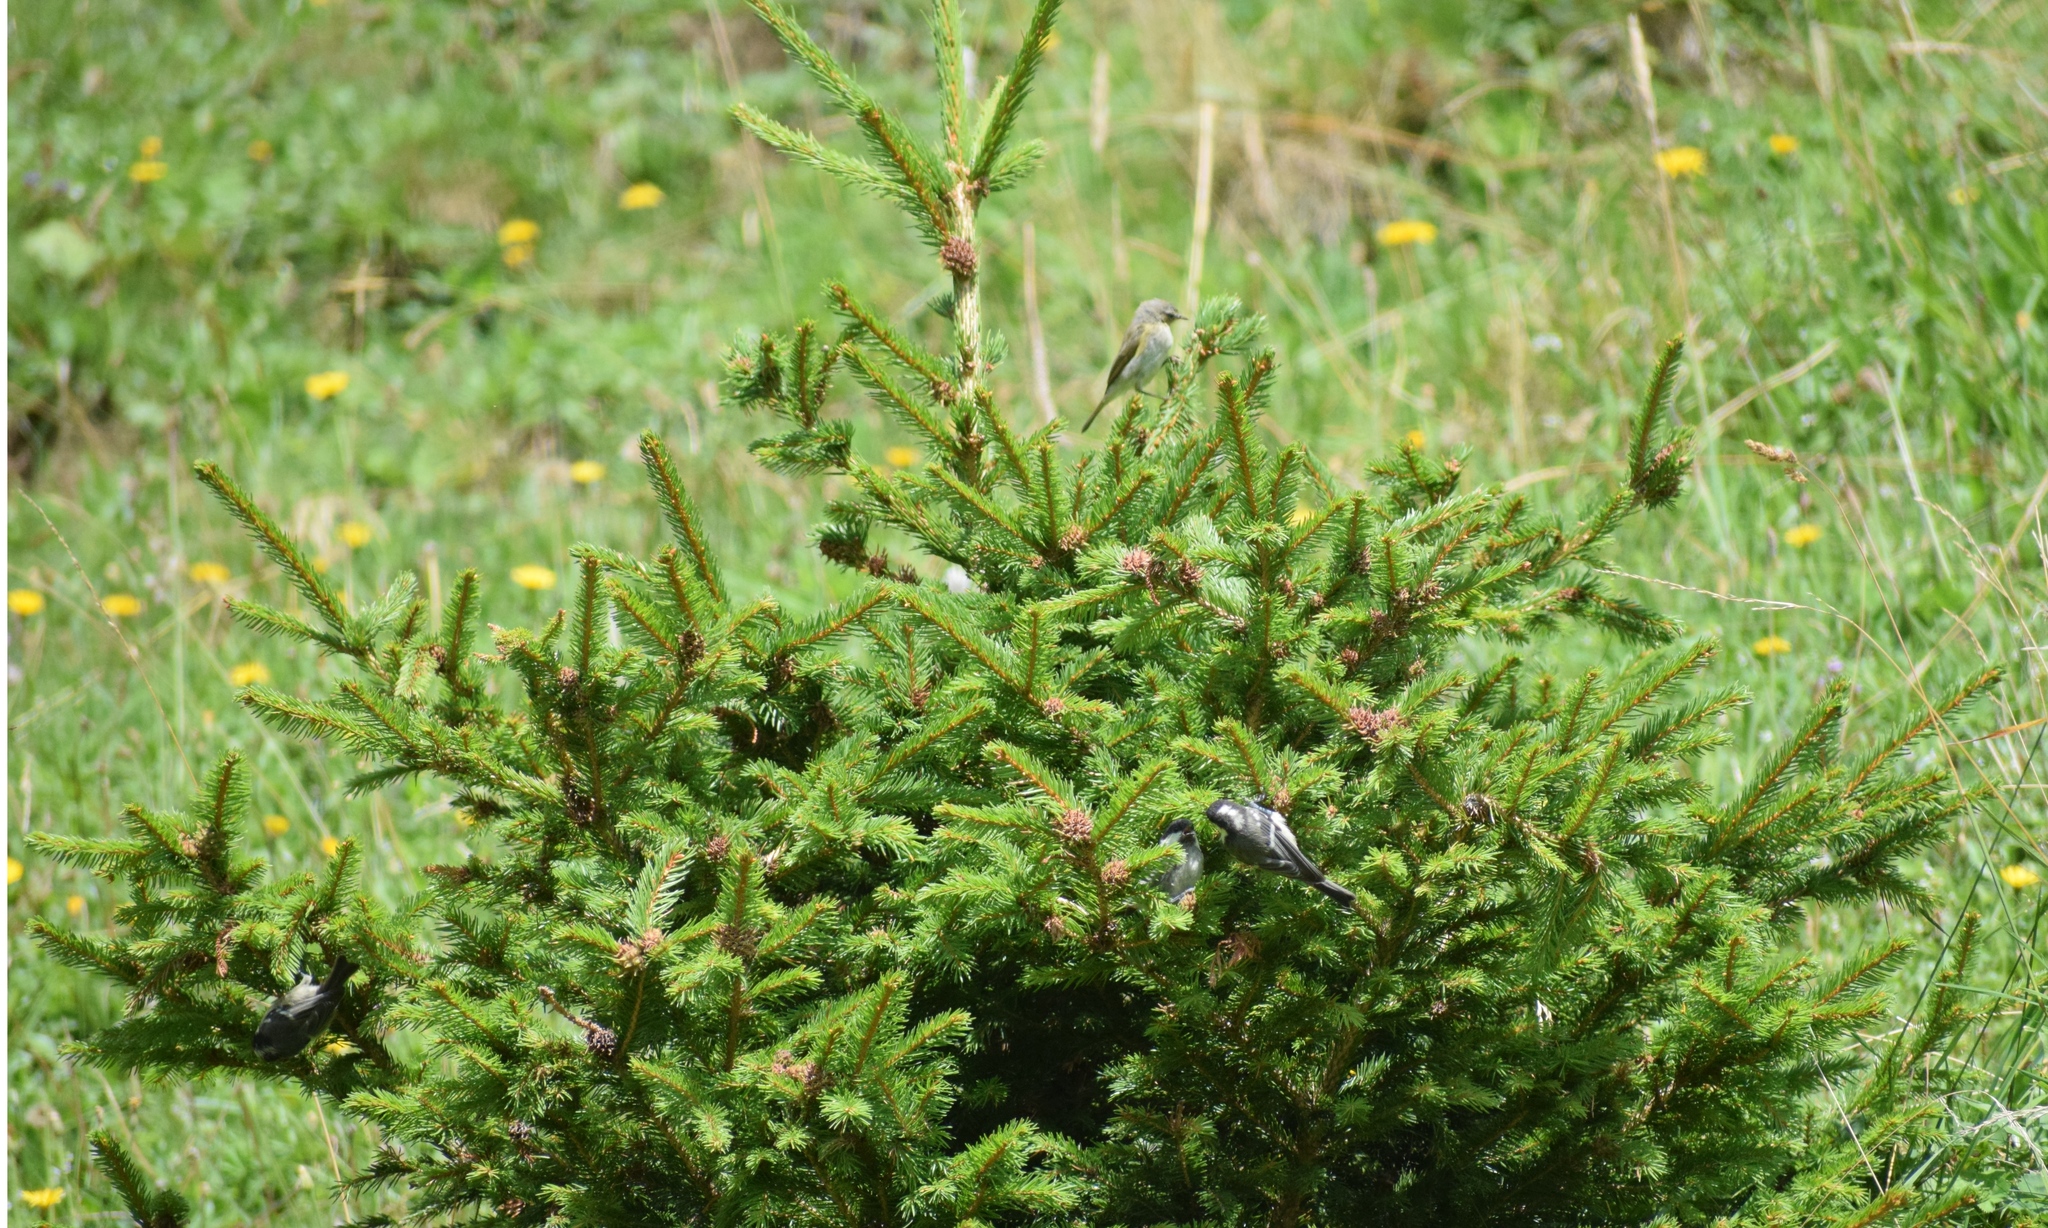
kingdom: Animalia
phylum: Chordata
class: Aves
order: Passeriformes
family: Phylloscopidae
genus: Phylloscopus
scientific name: Phylloscopus collybita
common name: Common chiffchaff
